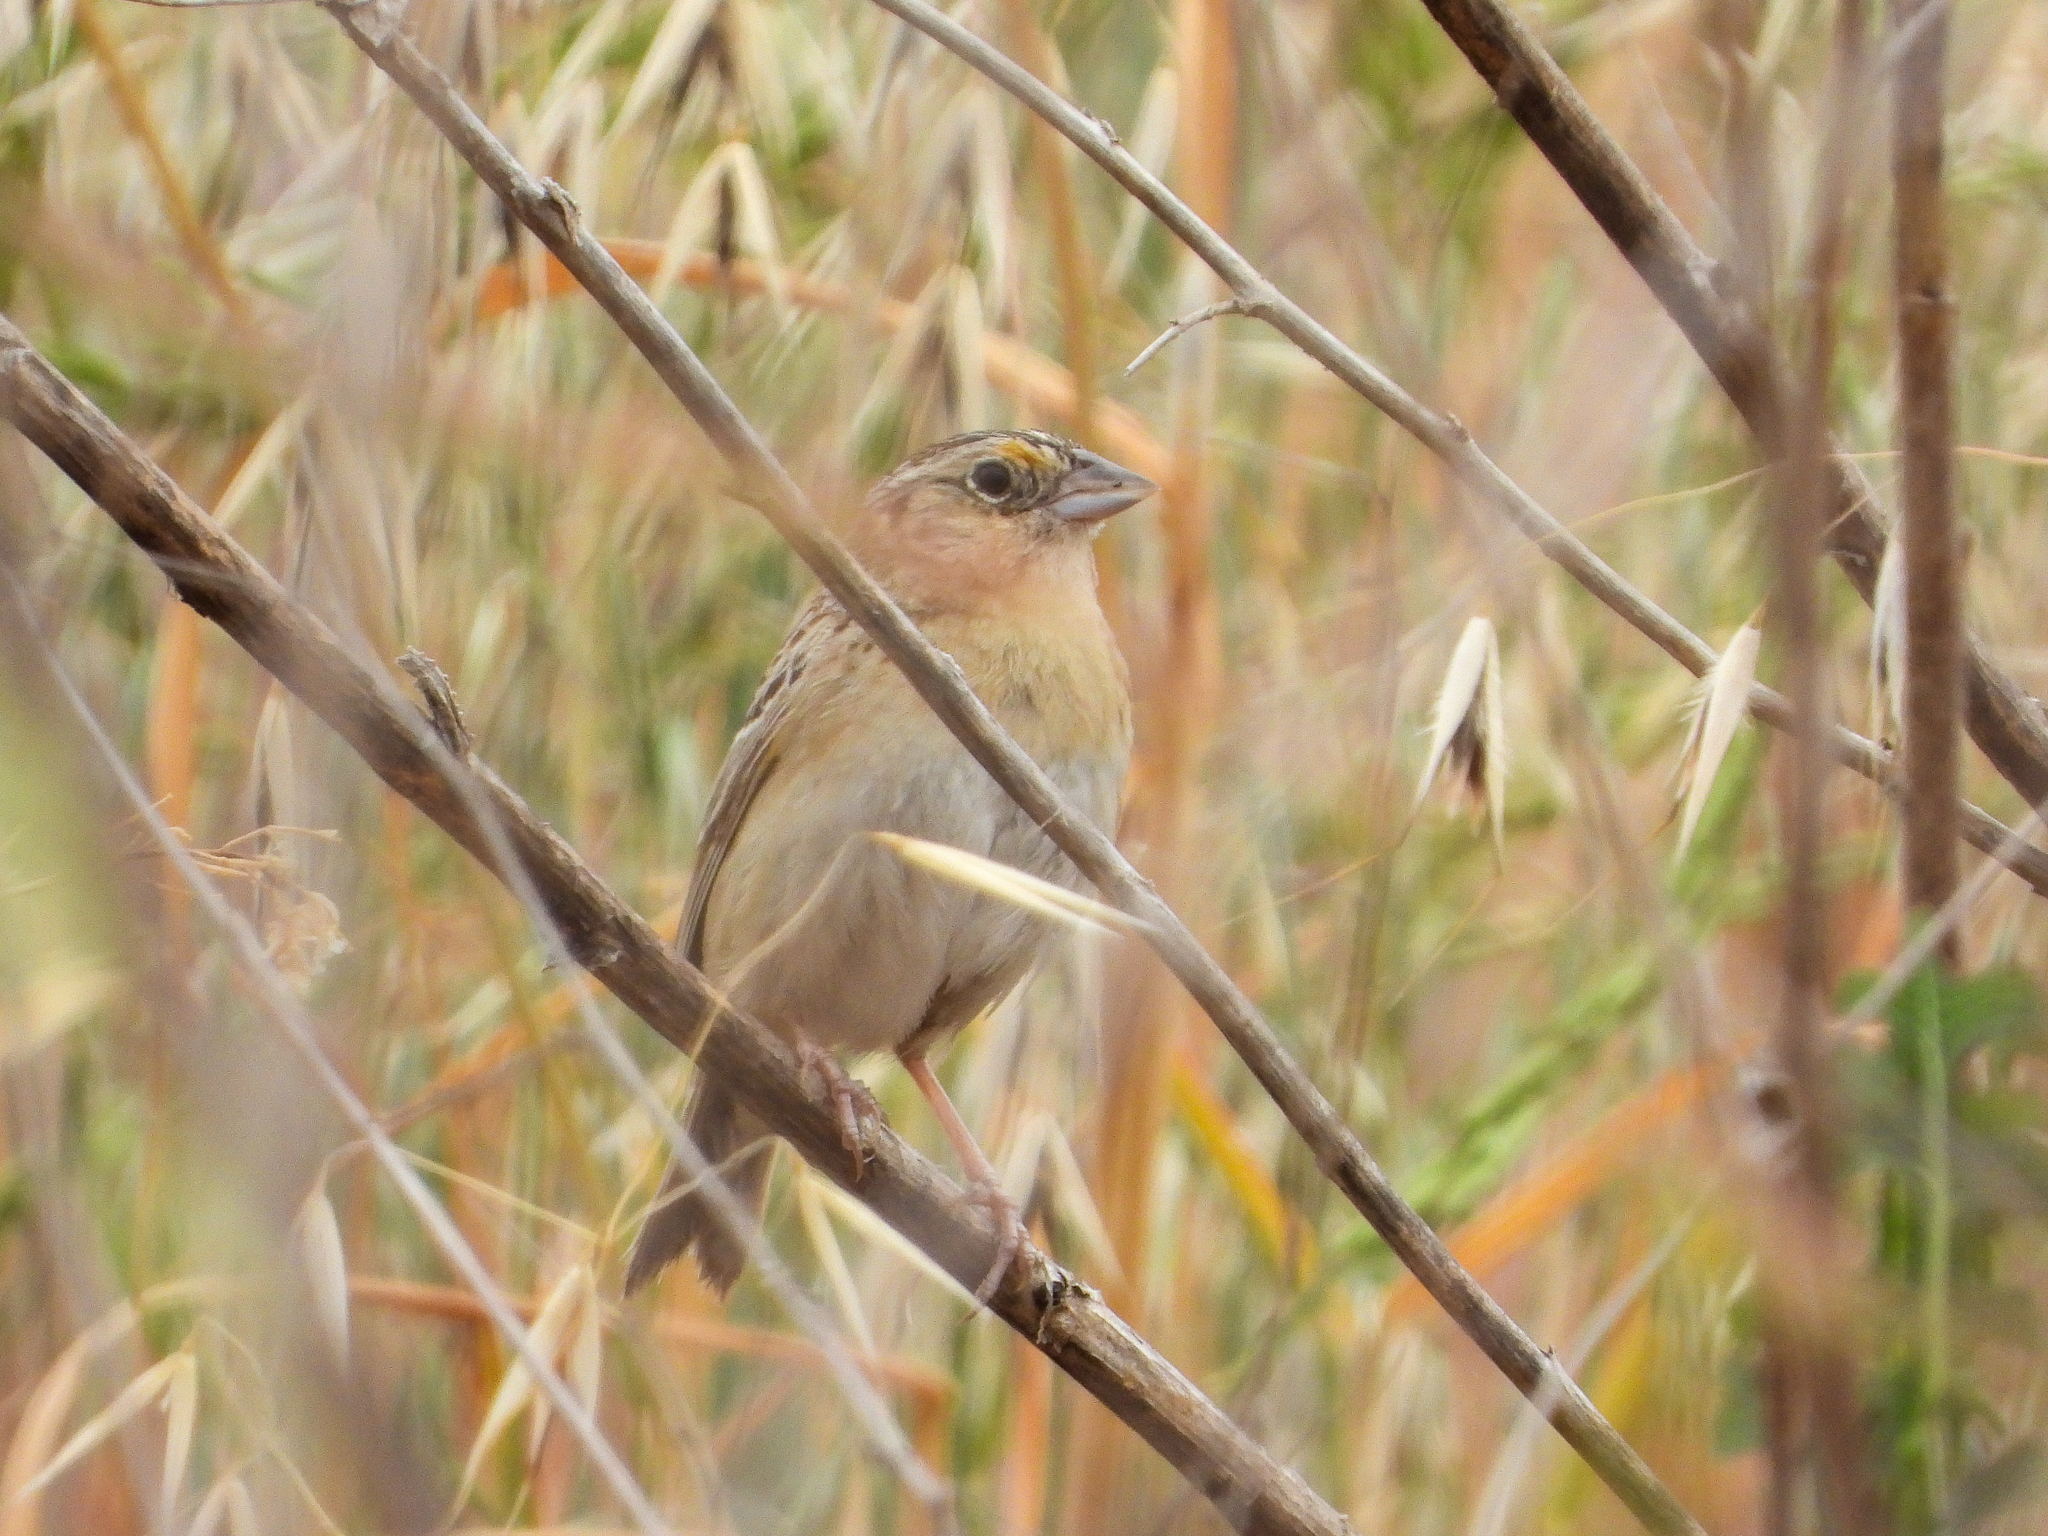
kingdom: Animalia
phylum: Chordata
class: Aves
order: Passeriformes
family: Passerellidae
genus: Ammodramus
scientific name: Ammodramus savannarum
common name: Grasshopper sparrow
